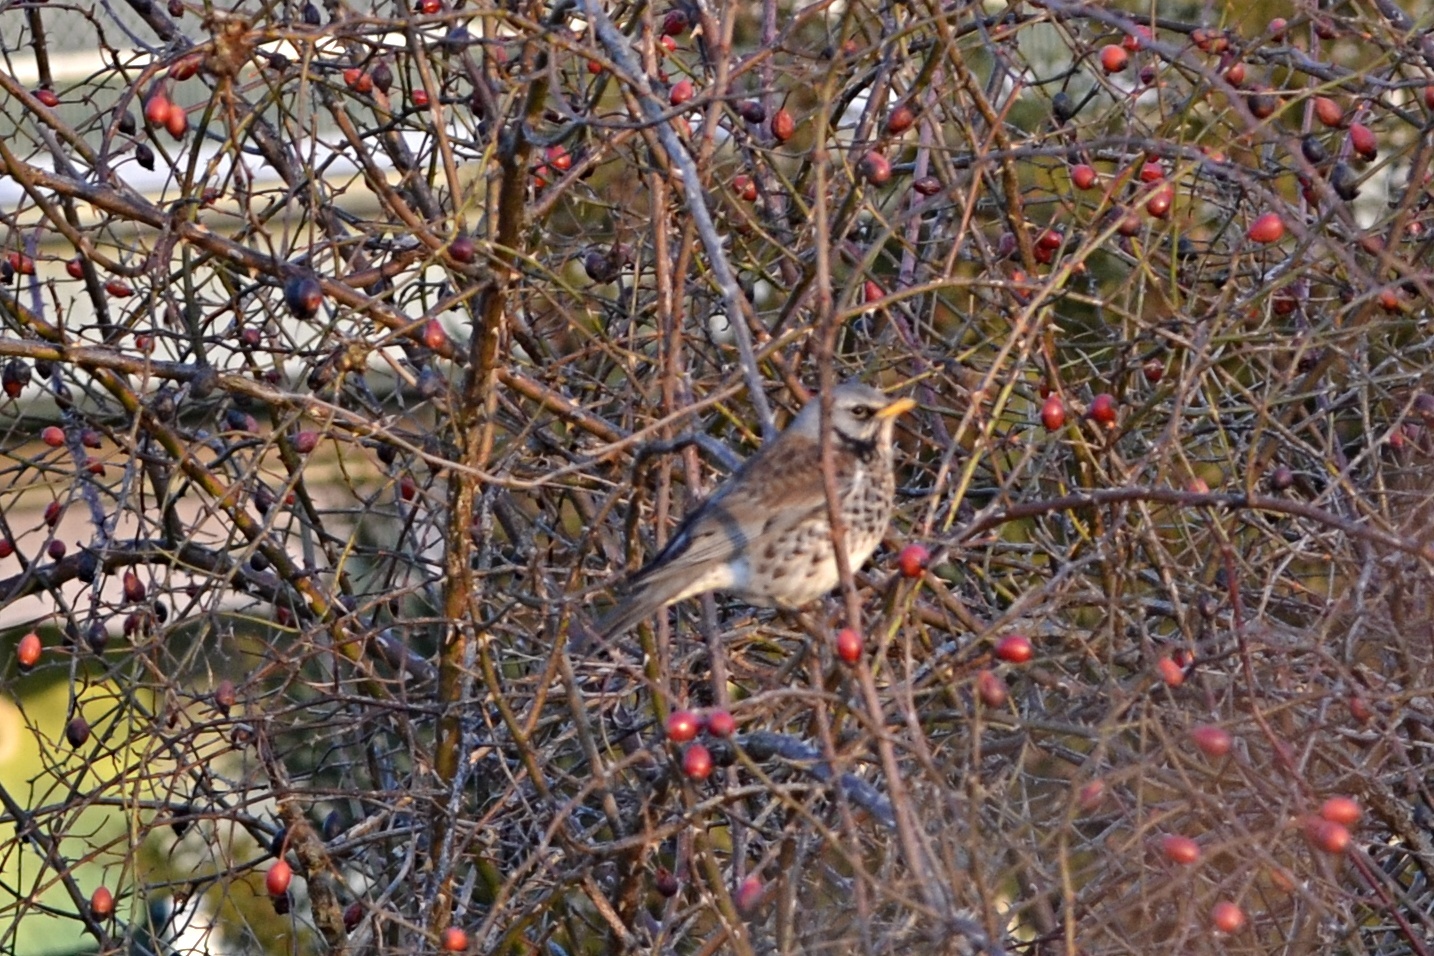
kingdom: Animalia
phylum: Chordata
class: Aves
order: Passeriformes
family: Turdidae
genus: Turdus
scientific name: Turdus pilaris
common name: Fieldfare
